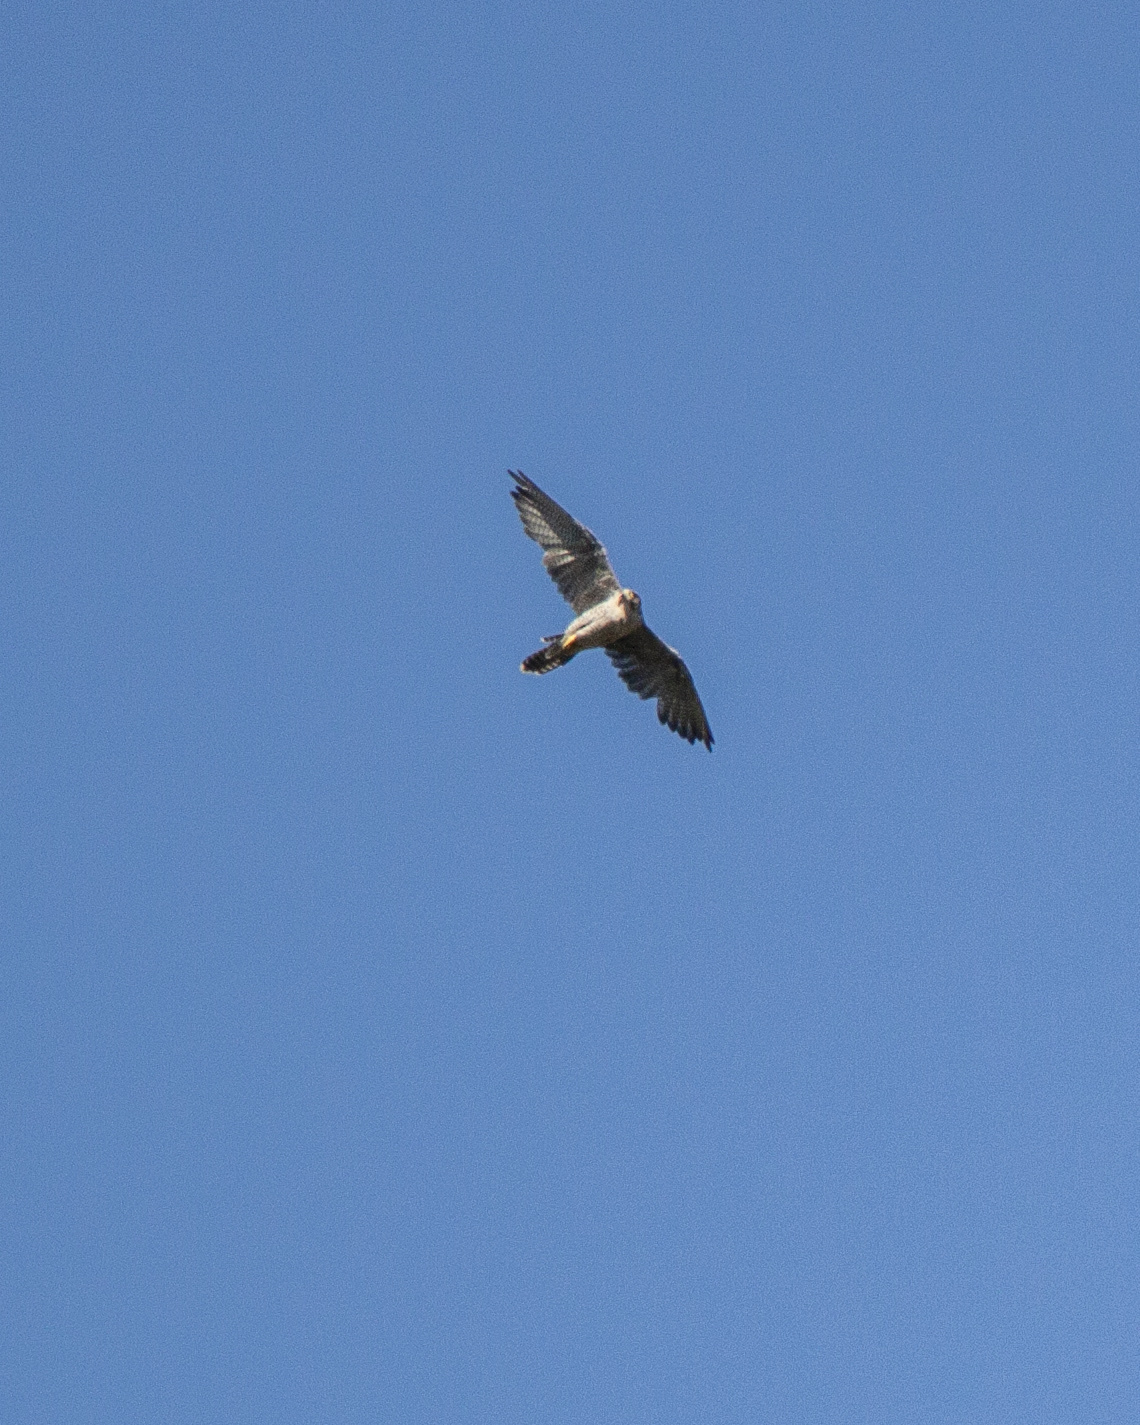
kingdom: Animalia
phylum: Chordata
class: Aves
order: Falconiformes
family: Falconidae
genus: Falco
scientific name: Falco peregrinus
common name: Peregrine falcon
